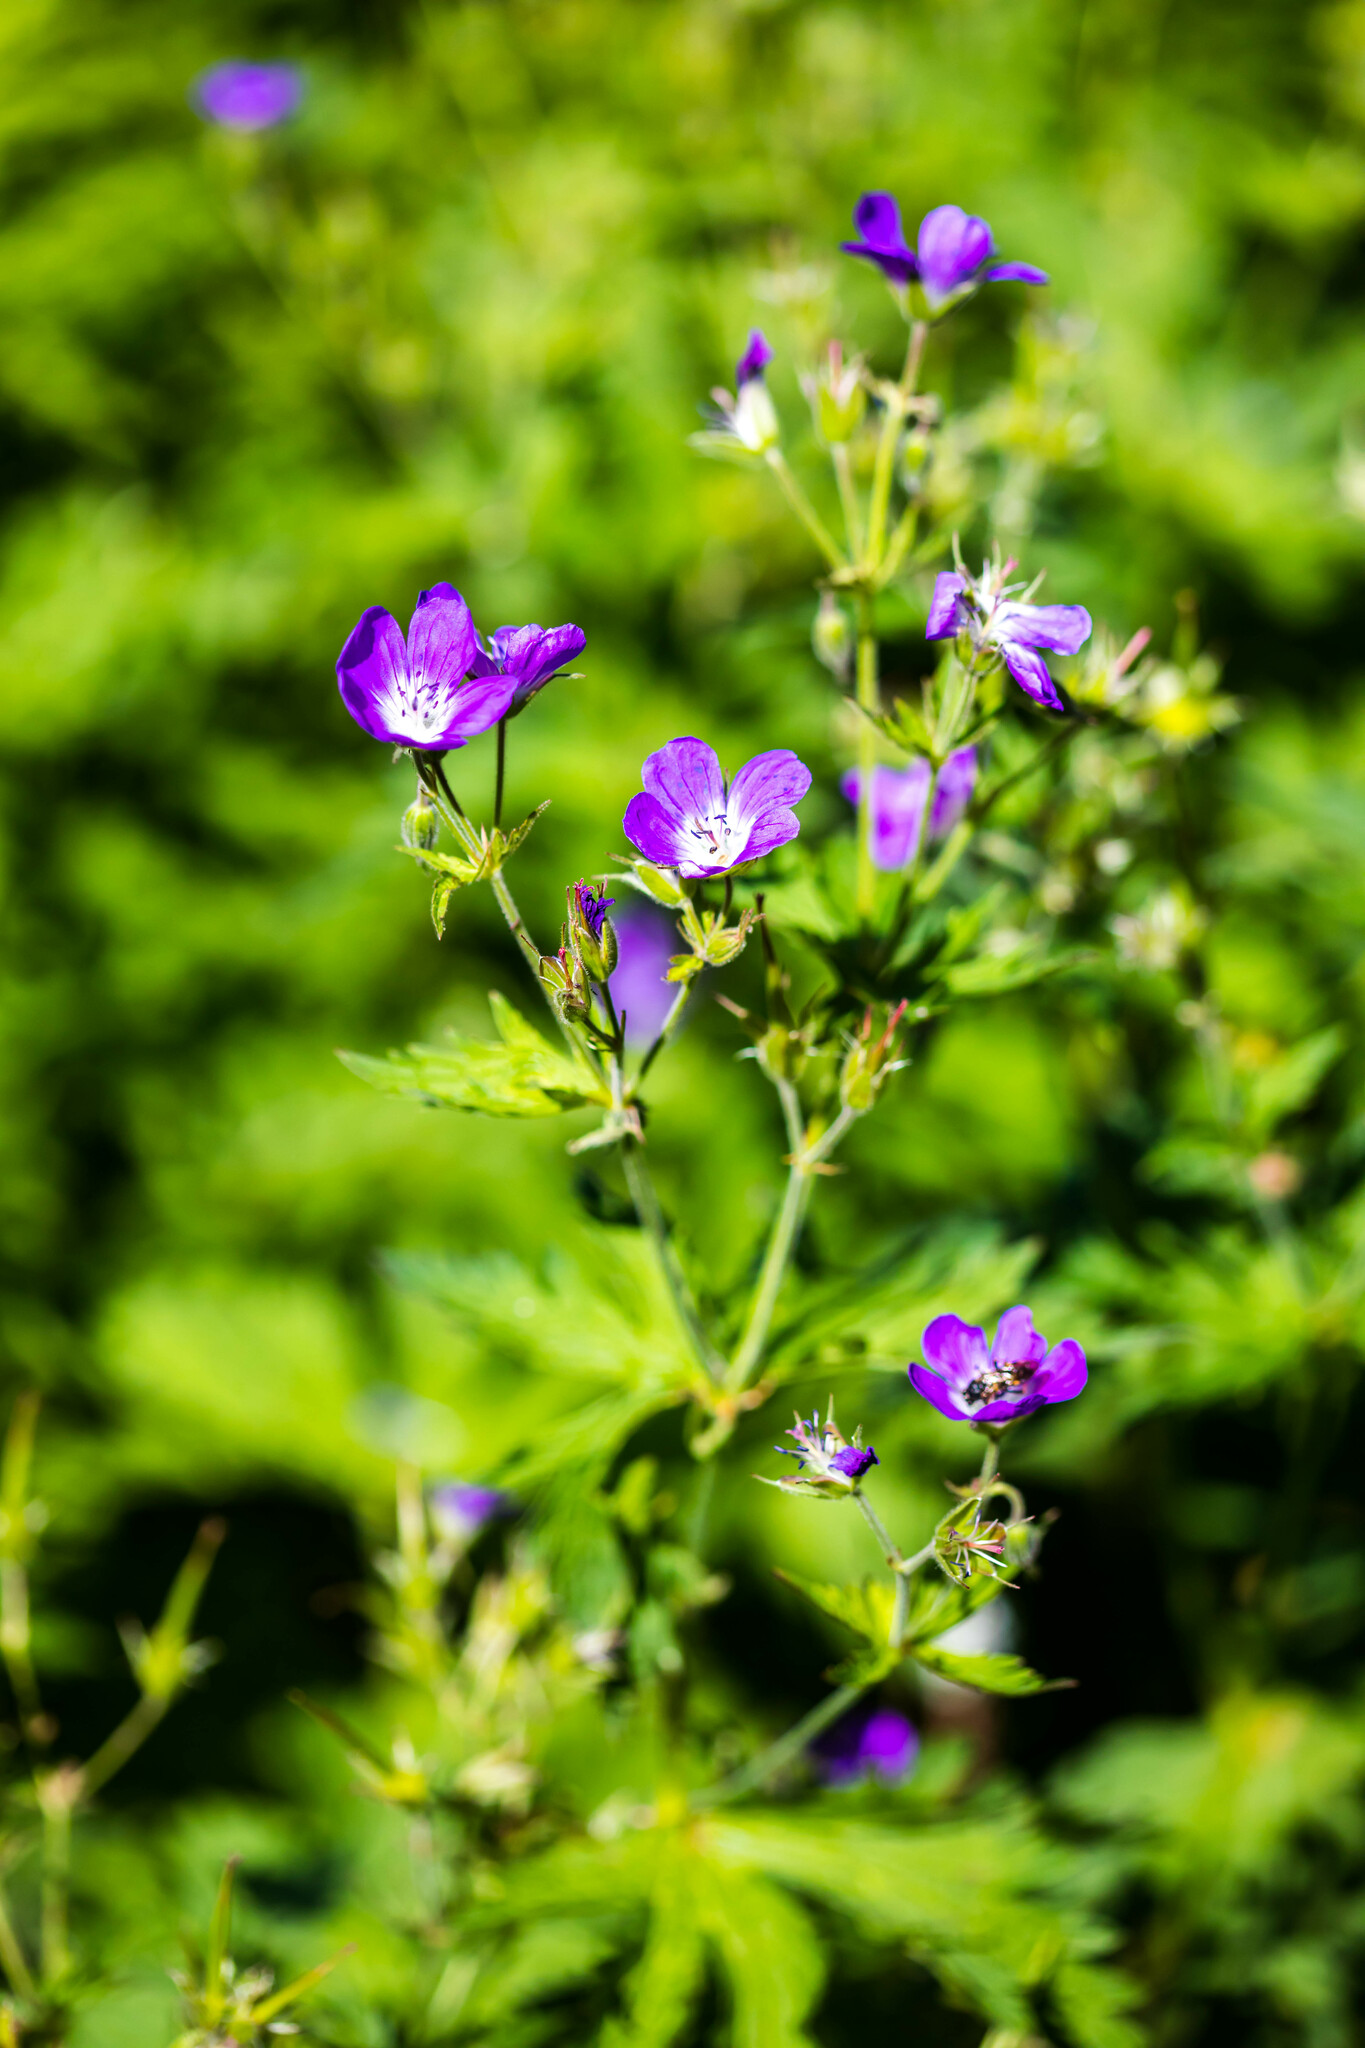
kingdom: Plantae
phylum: Tracheophyta
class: Magnoliopsida
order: Geraniales
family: Geraniaceae
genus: Geranium
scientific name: Geranium sylvaticum
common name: Wood crane's-bill
